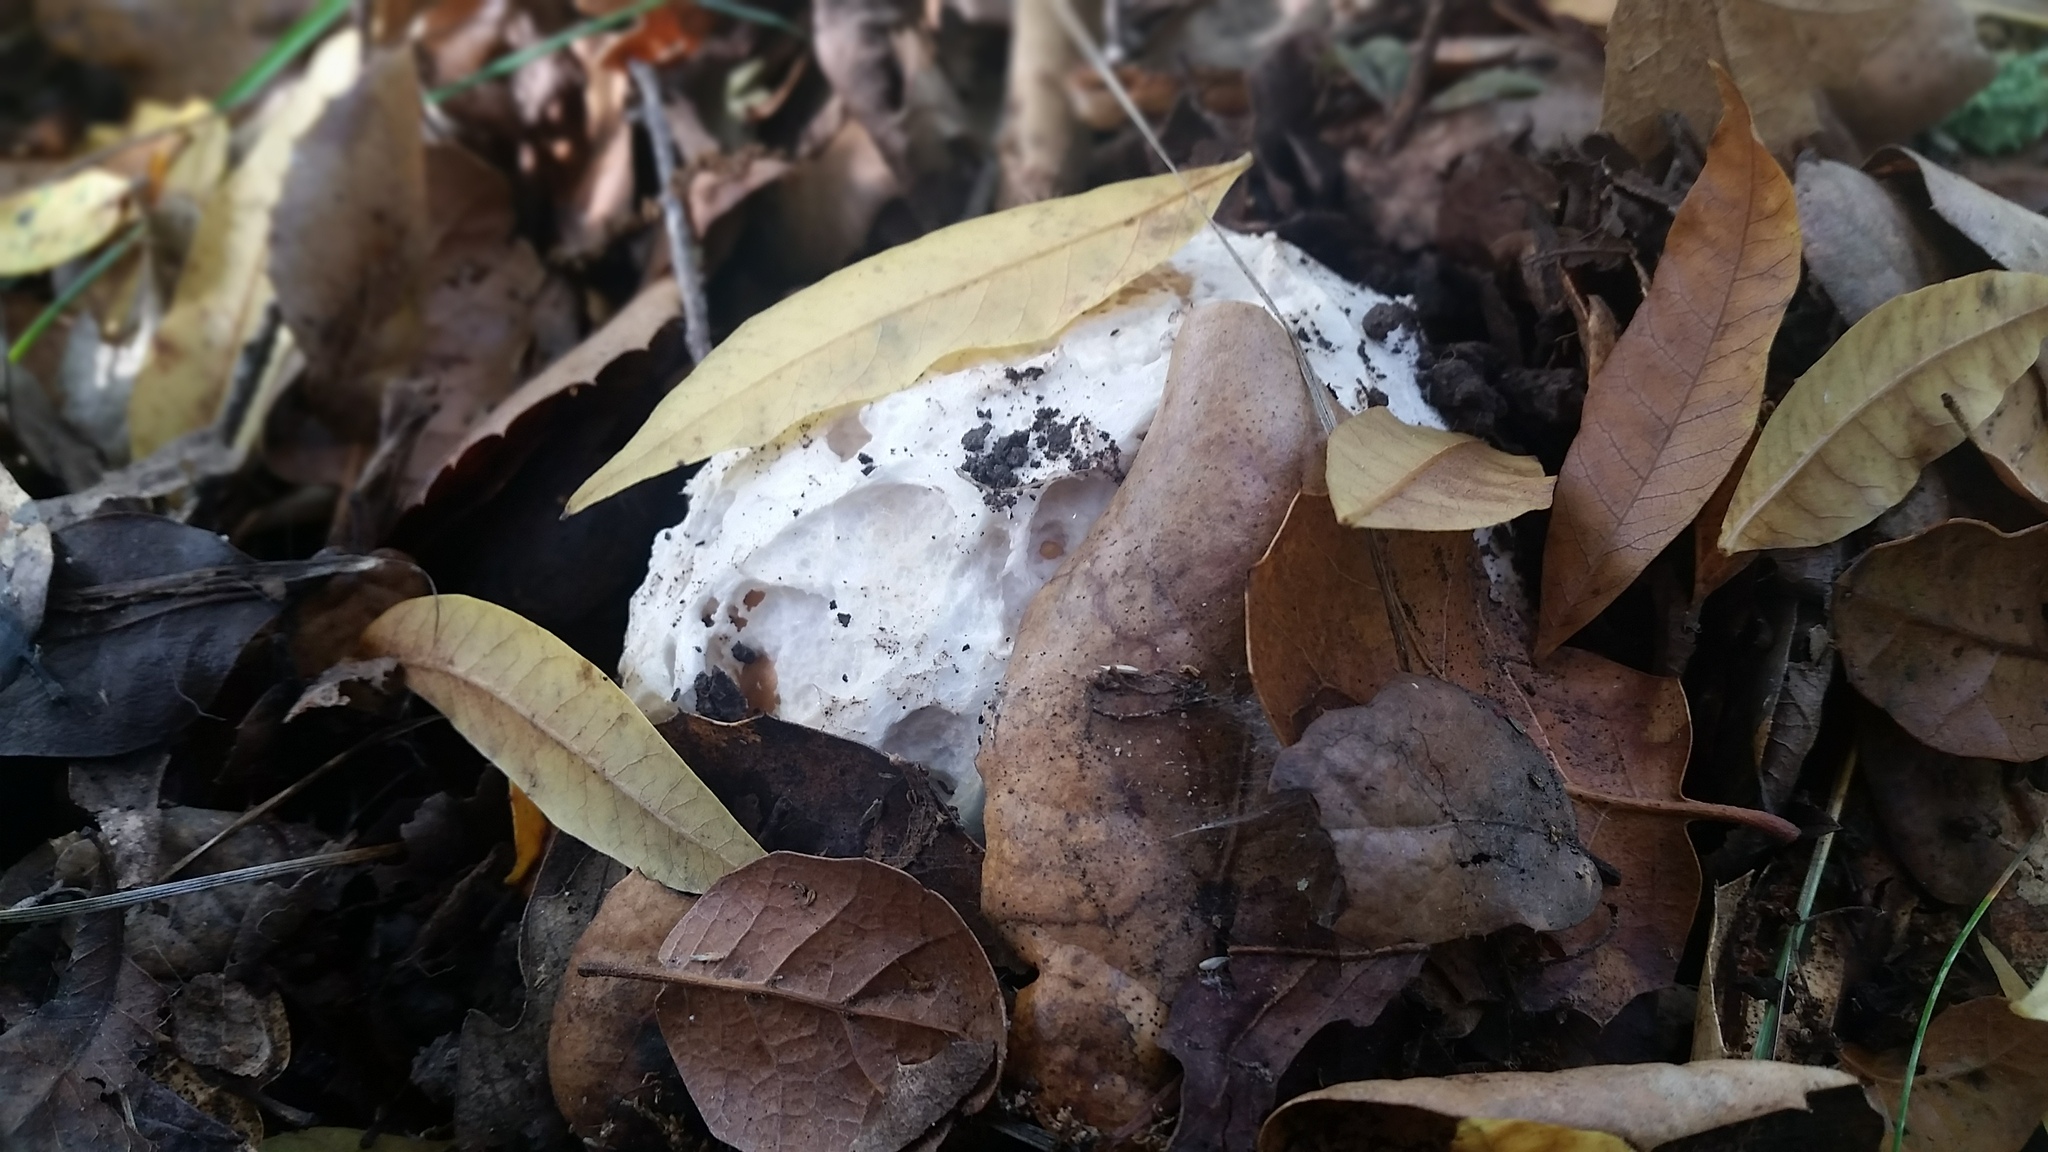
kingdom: Fungi
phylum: Basidiomycota
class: Agaricomycetes
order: Agaricales
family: Amanitaceae
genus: Amanita
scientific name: Amanita calyptroderma
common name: Coccora
